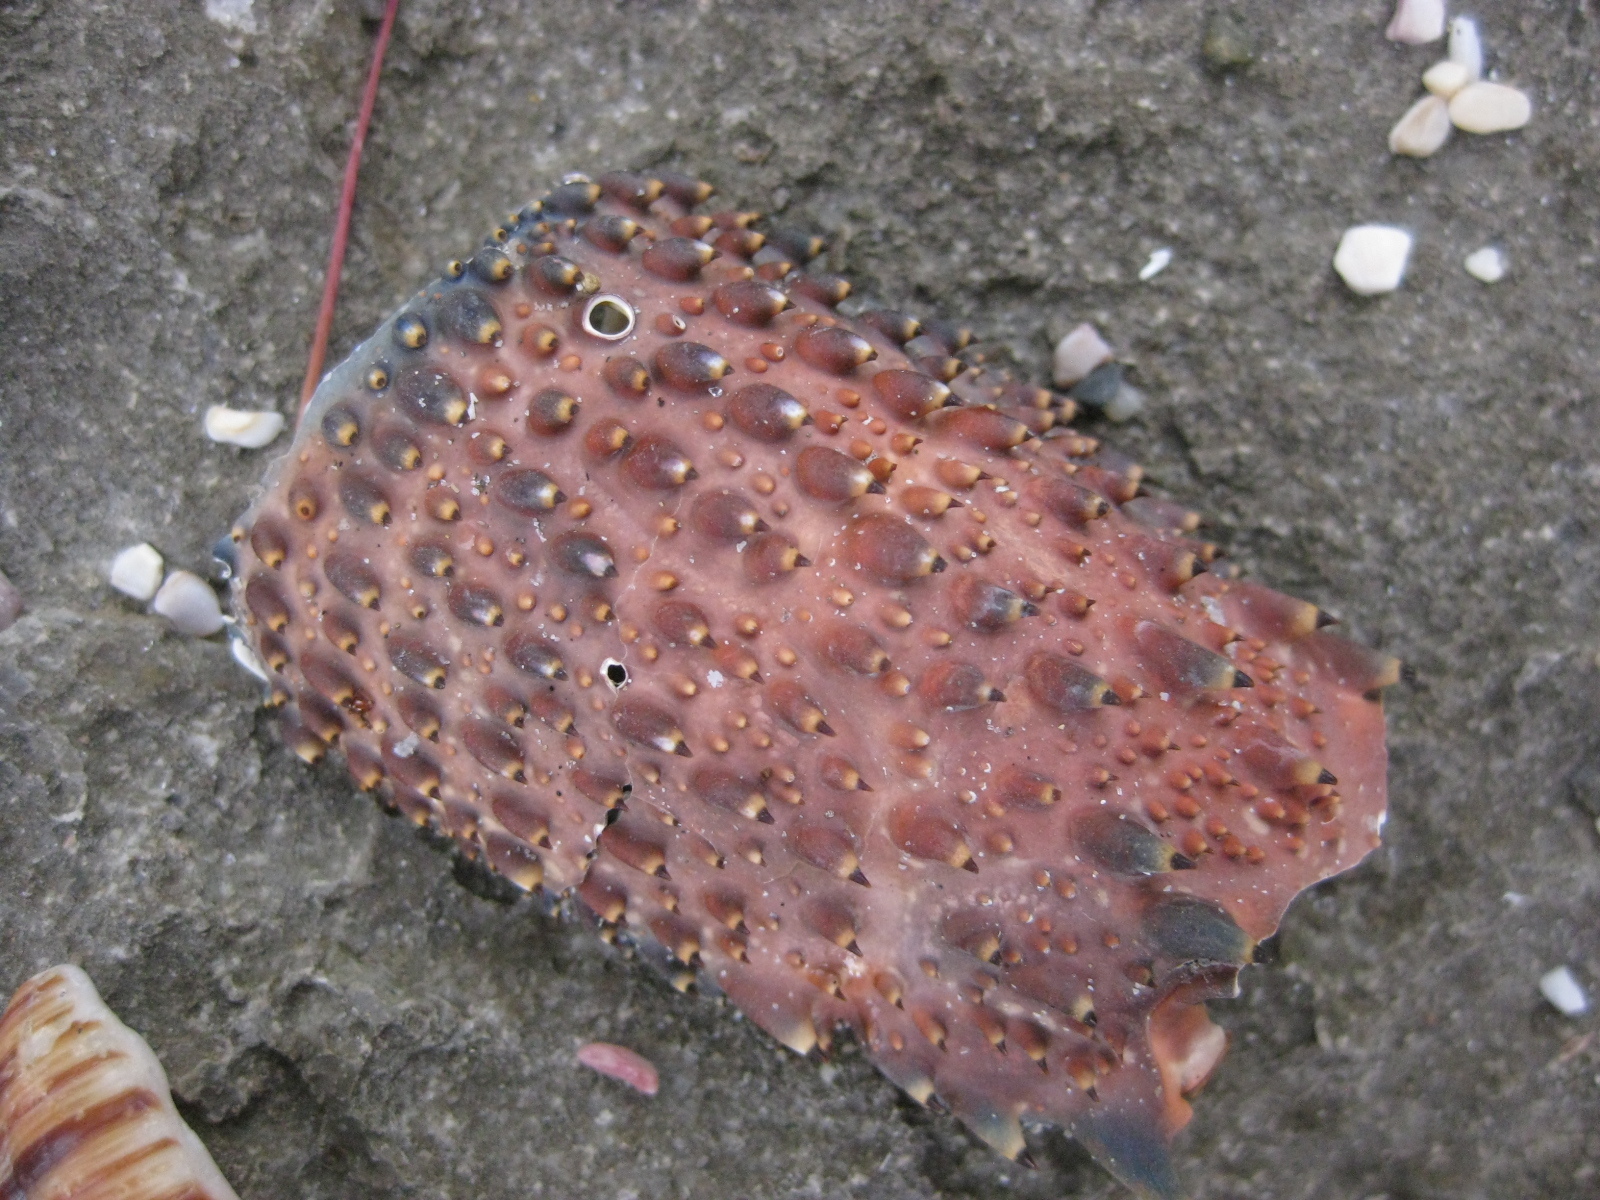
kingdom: Animalia
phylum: Arthropoda
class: Malacostraca
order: Decapoda
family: Palinuridae
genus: Sagmariasus
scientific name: Sagmariasus verreauxi
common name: Green rock lobster
